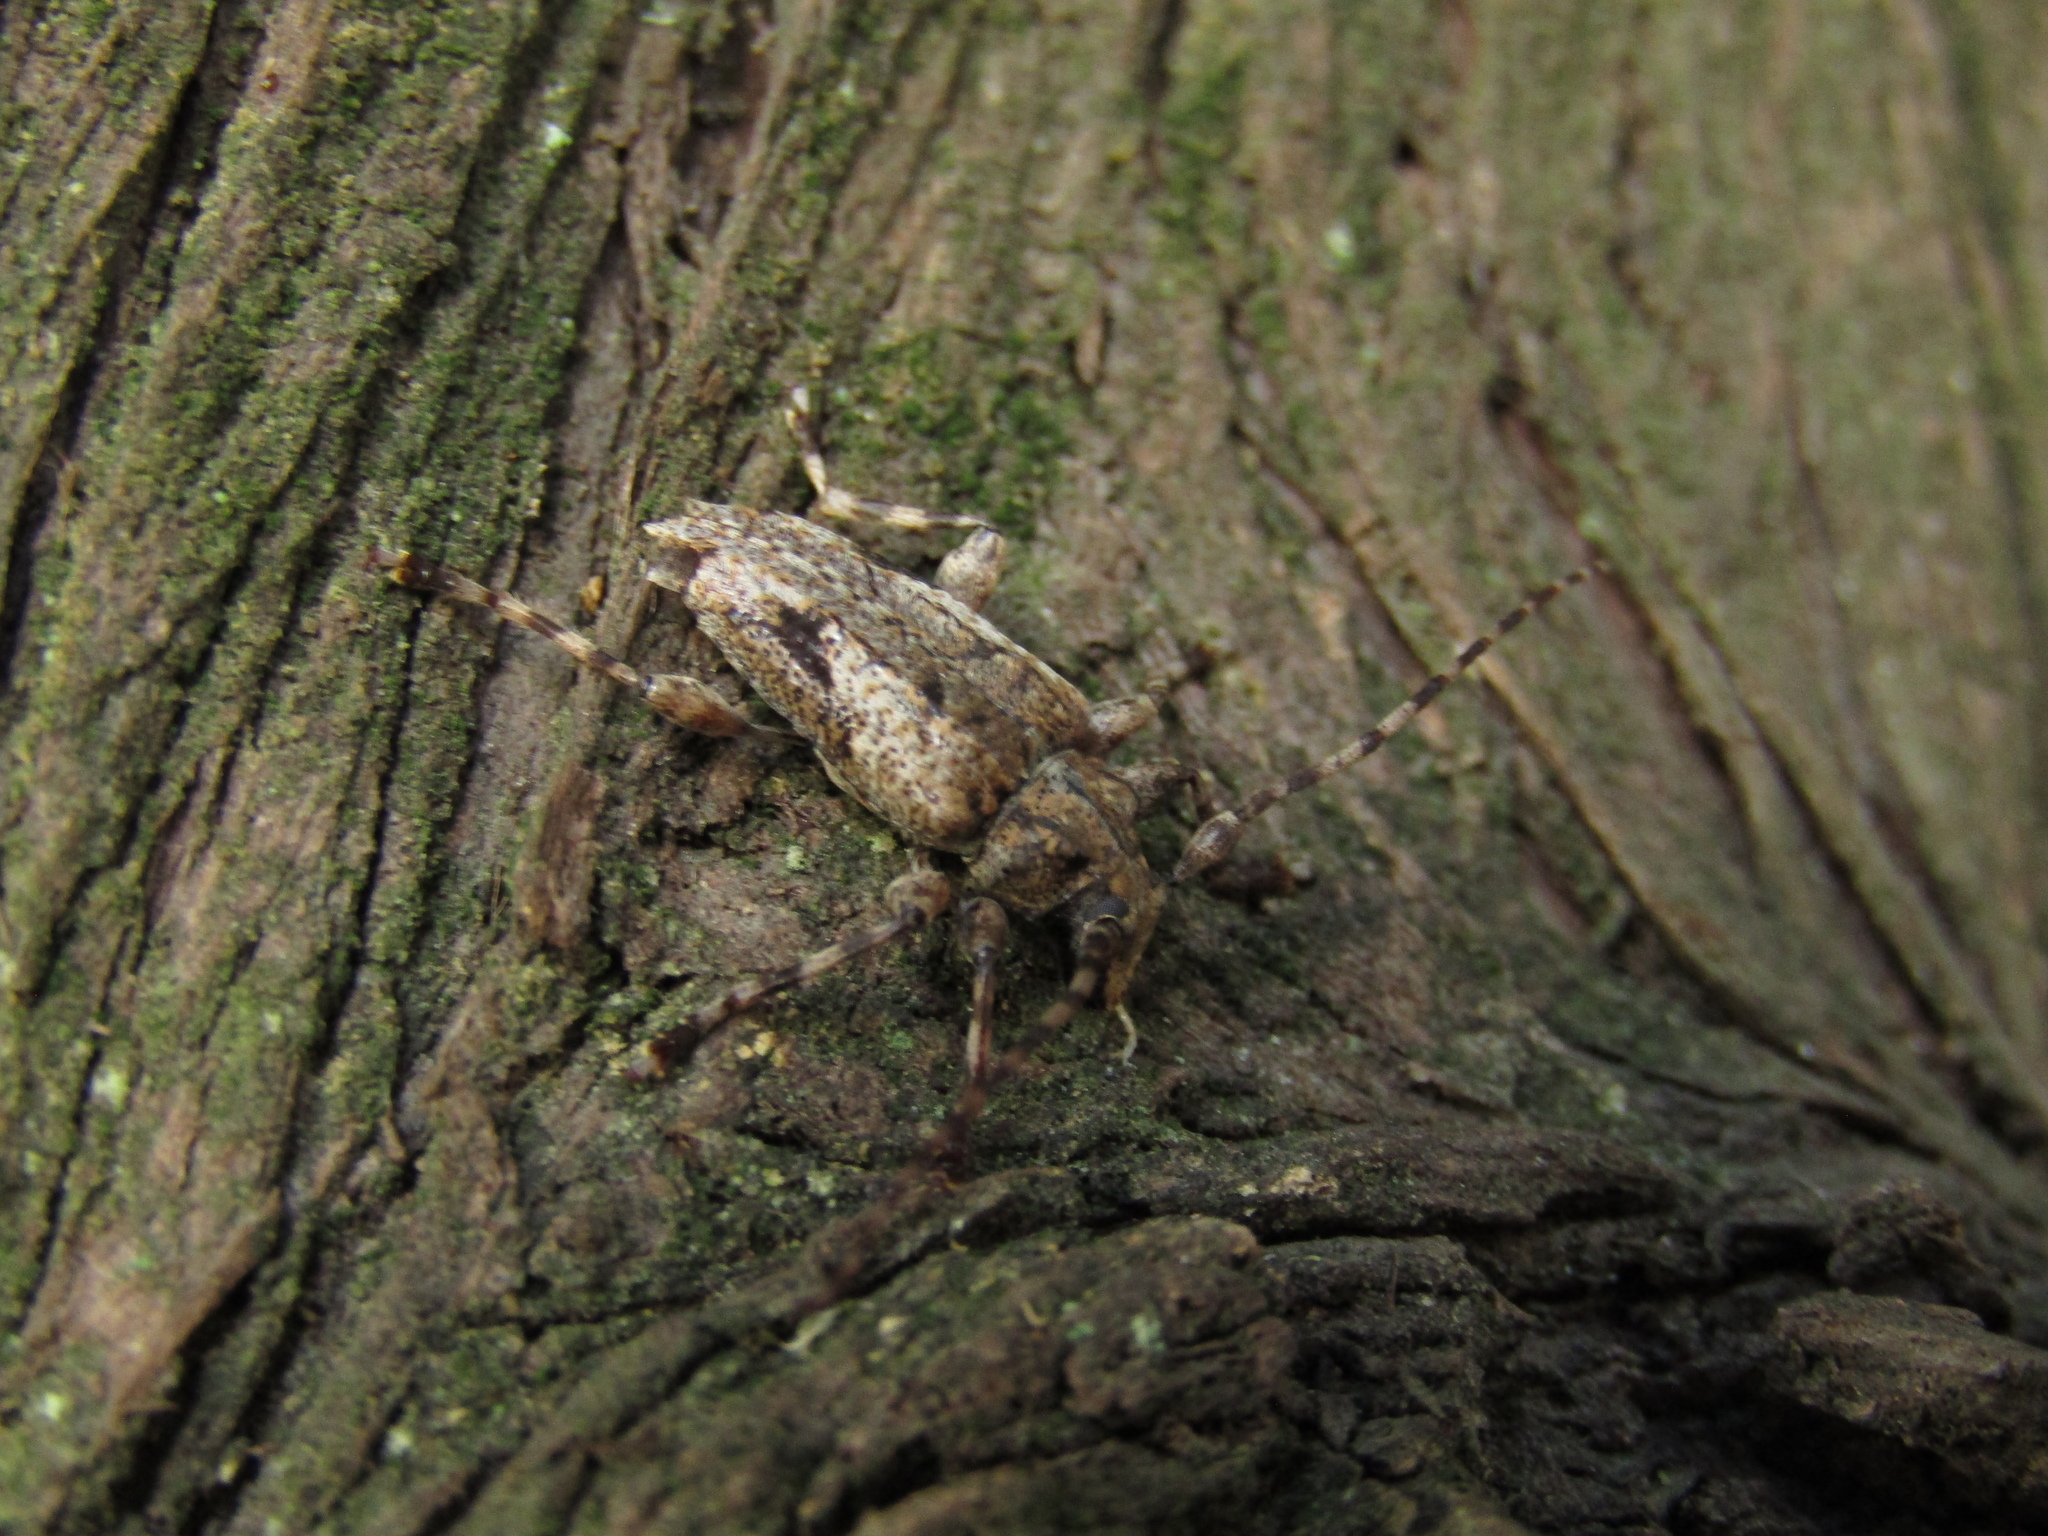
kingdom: Animalia
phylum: Arthropoda
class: Insecta
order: Coleoptera
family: Cerambycidae
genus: Psapharochrus
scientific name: Psapharochrus jaspideus
